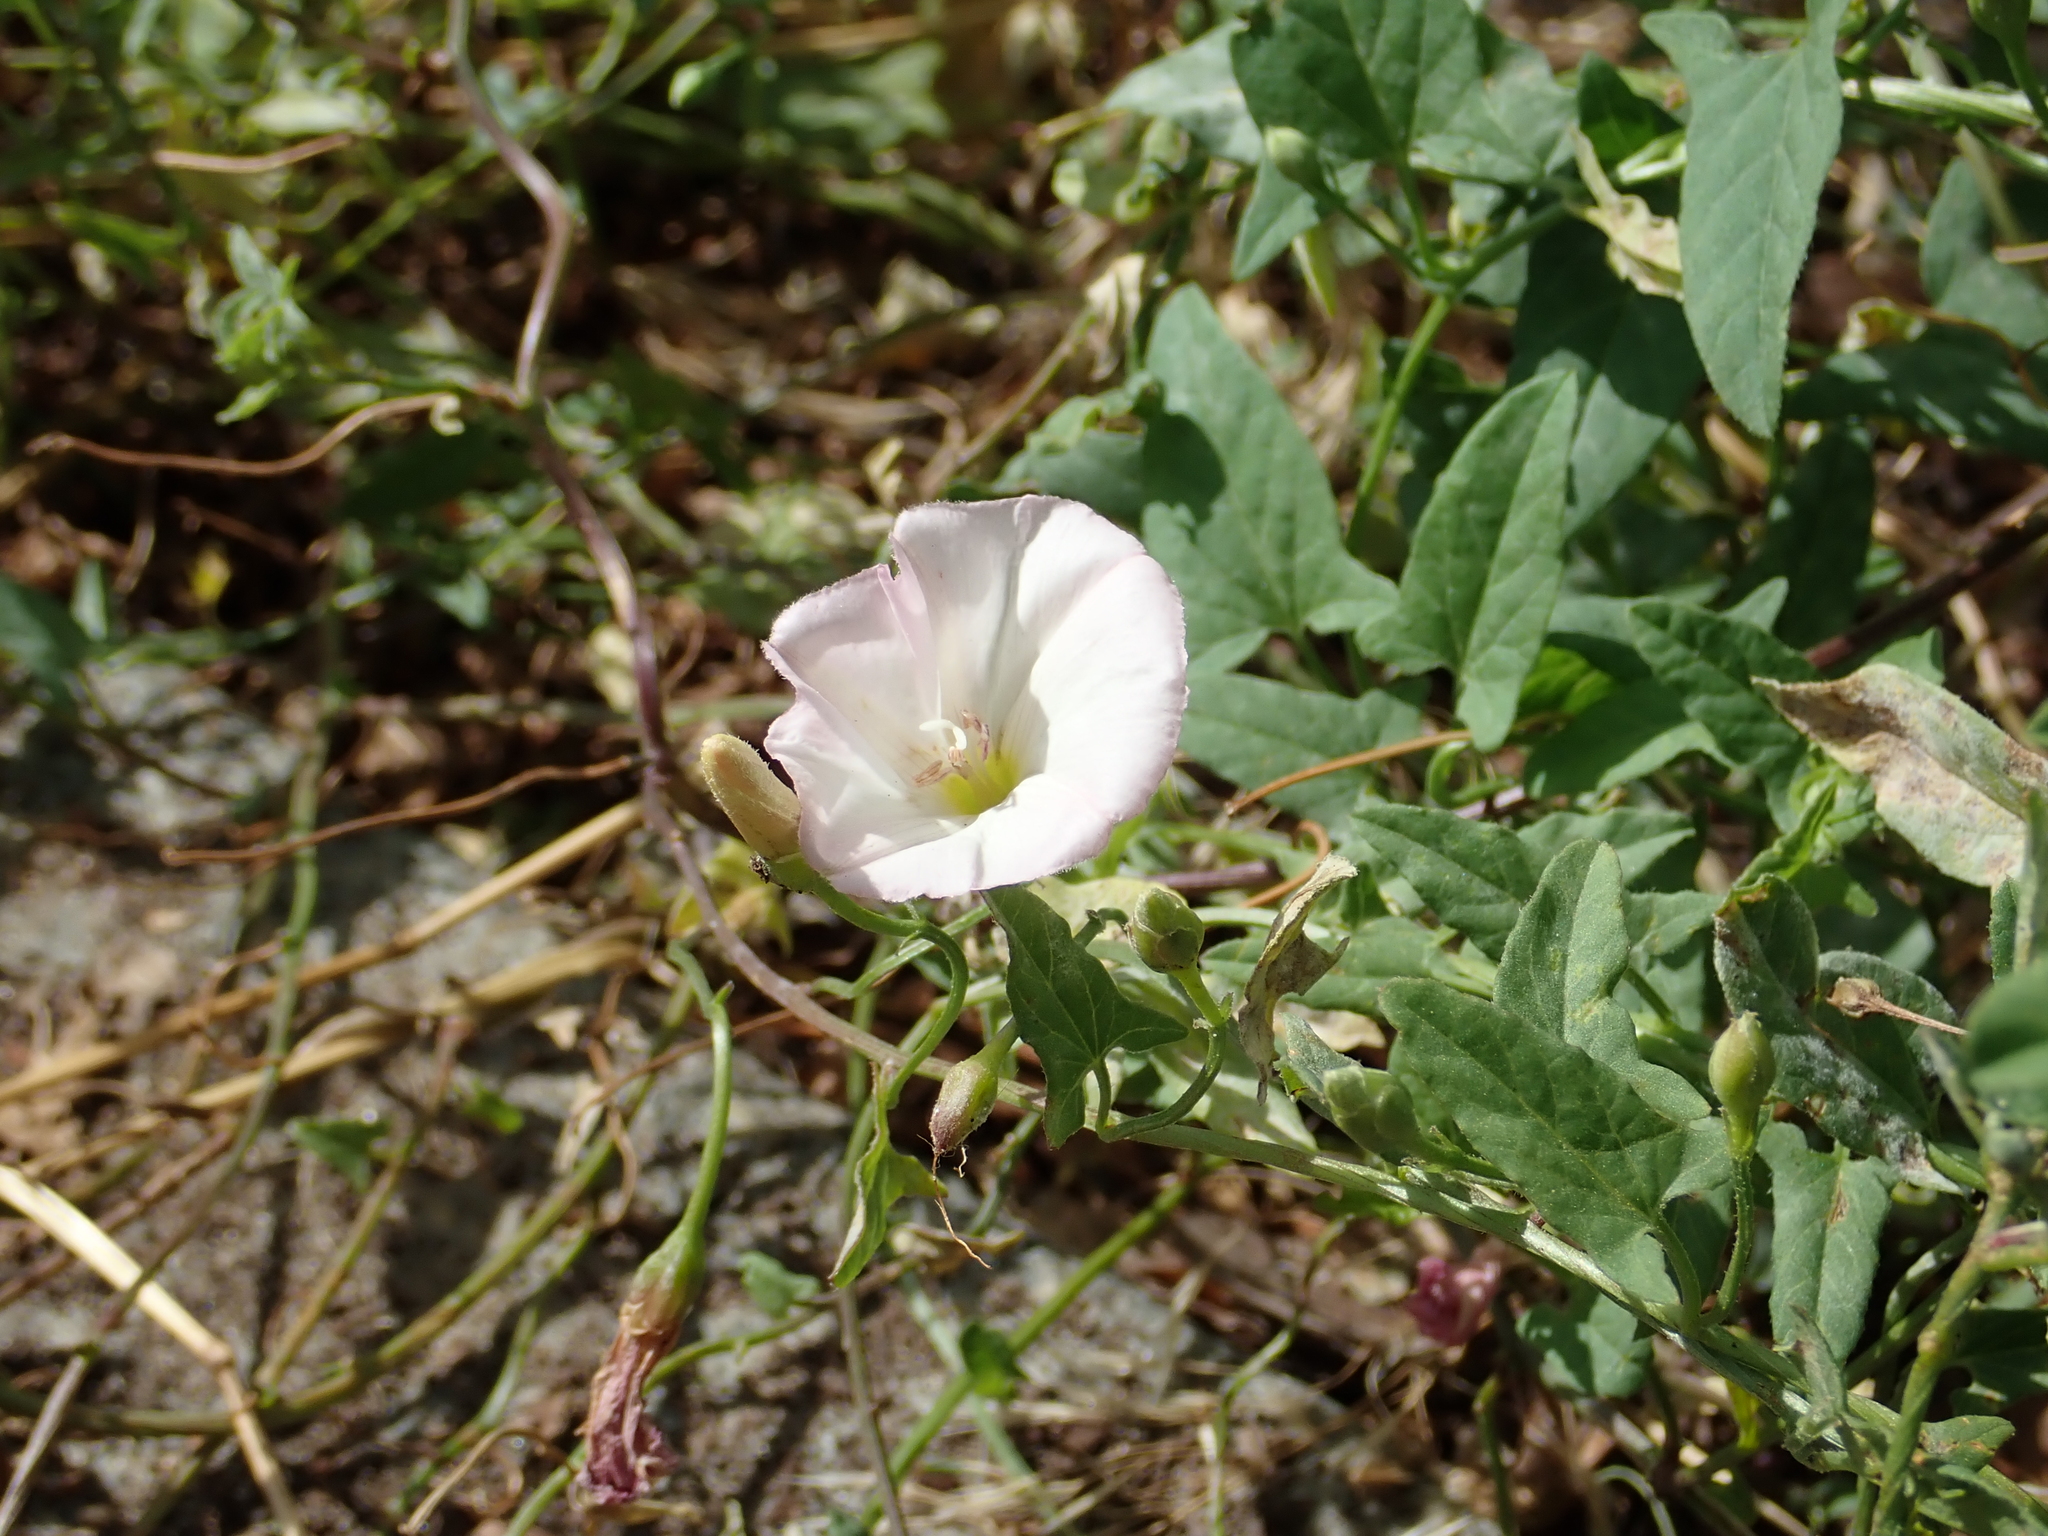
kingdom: Plantae
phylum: Tracheophyta
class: Magnoliopsida
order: Solanales
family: Convolvulaceae
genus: Convolvulus
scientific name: Convolvulus arvensis
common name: Field bindweed
